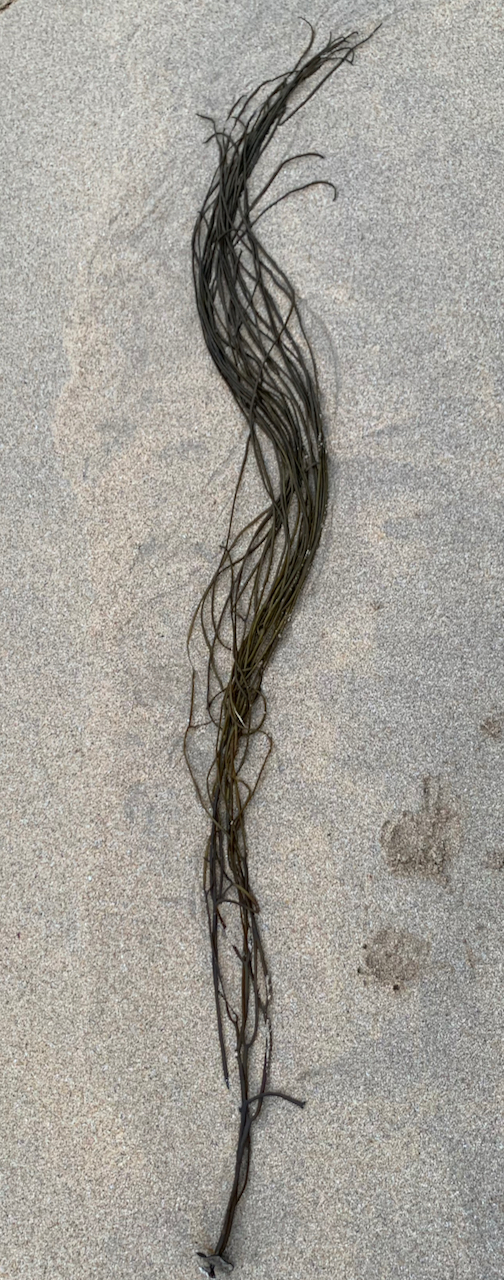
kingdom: Chromista
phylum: Ochrophyta
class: Phaeophyceae
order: Fucales
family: Himanthaliaceae
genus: Himanthalia
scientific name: Himanthalia elongata
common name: Sea-thong
